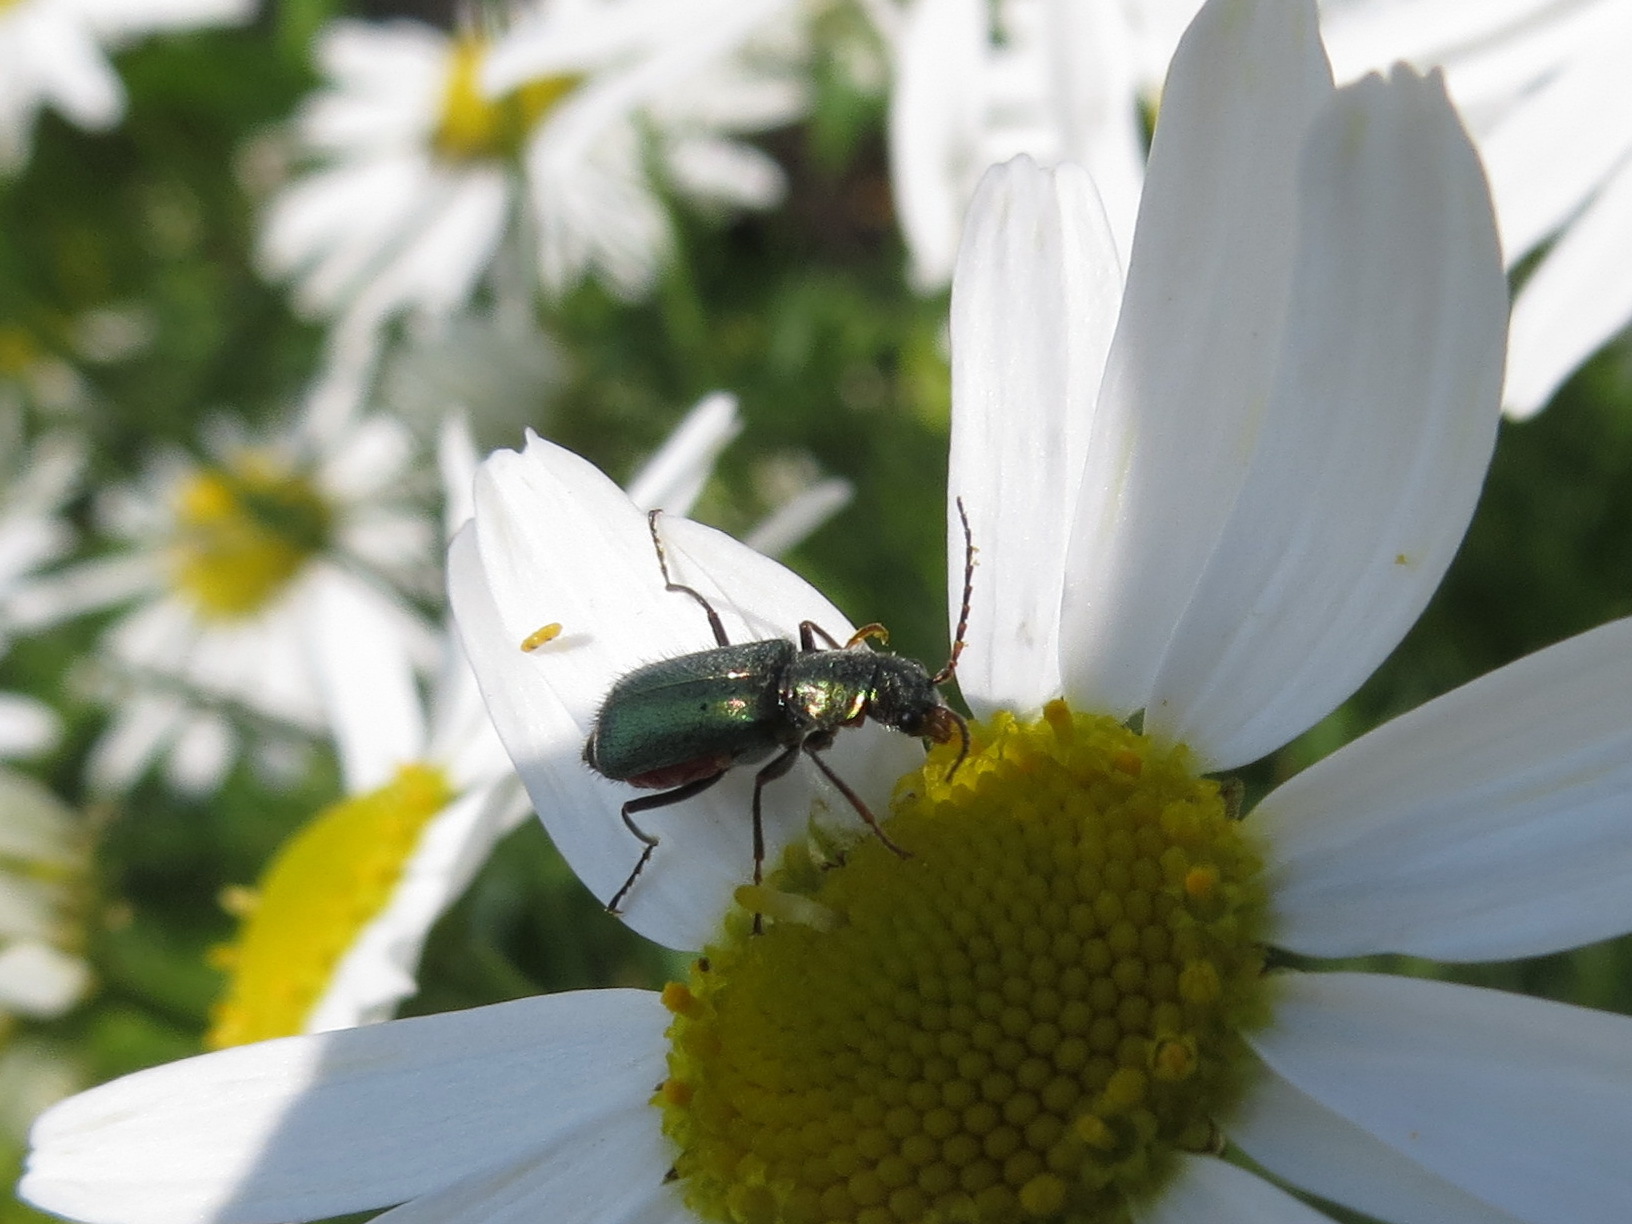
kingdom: Animalia
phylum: Arthropoda
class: Insecta
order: Coleoptera
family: Malachiidae
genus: Cordylepherus
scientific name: Cordylepherus viridis
